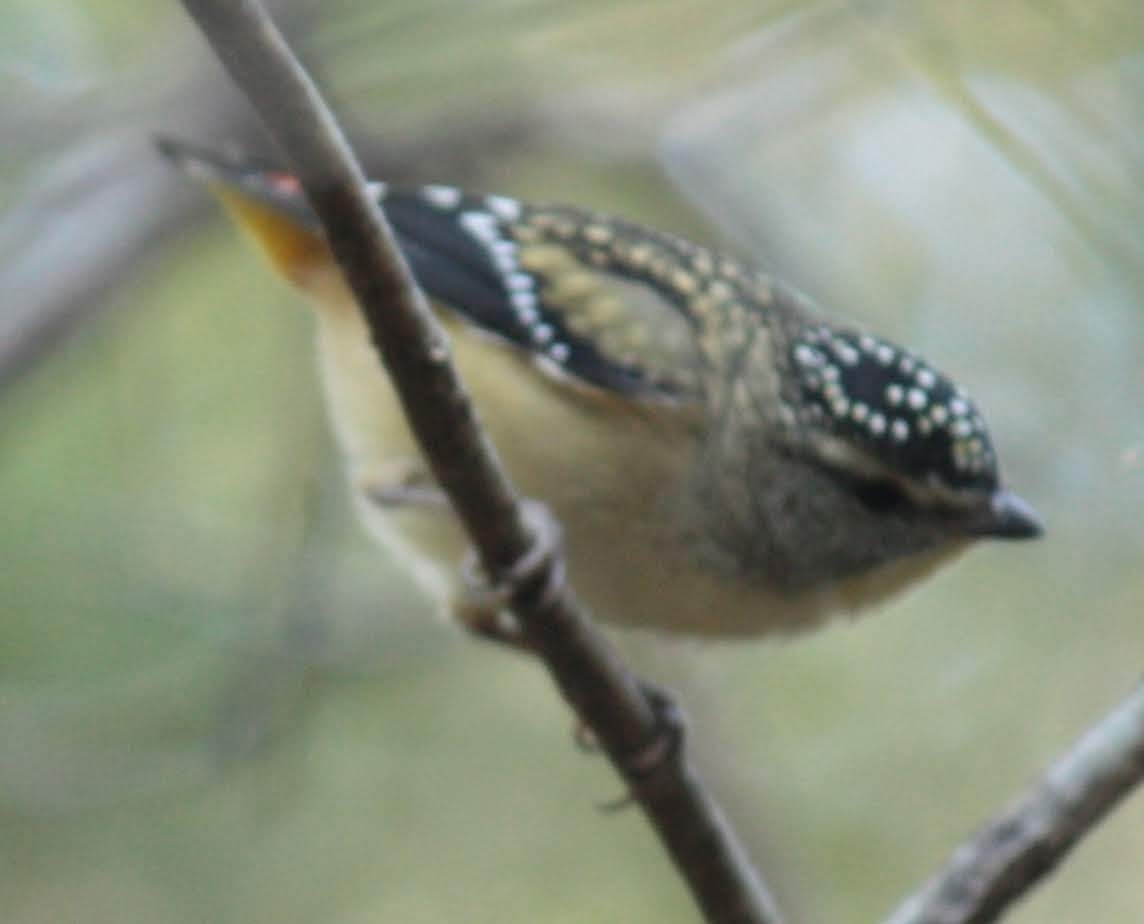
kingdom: Animalia
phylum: Chordata
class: Aves
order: Passeriformes
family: Pardalotidae
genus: Pardalotus
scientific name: Pardalotus punctatus
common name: Spotted pardalote
